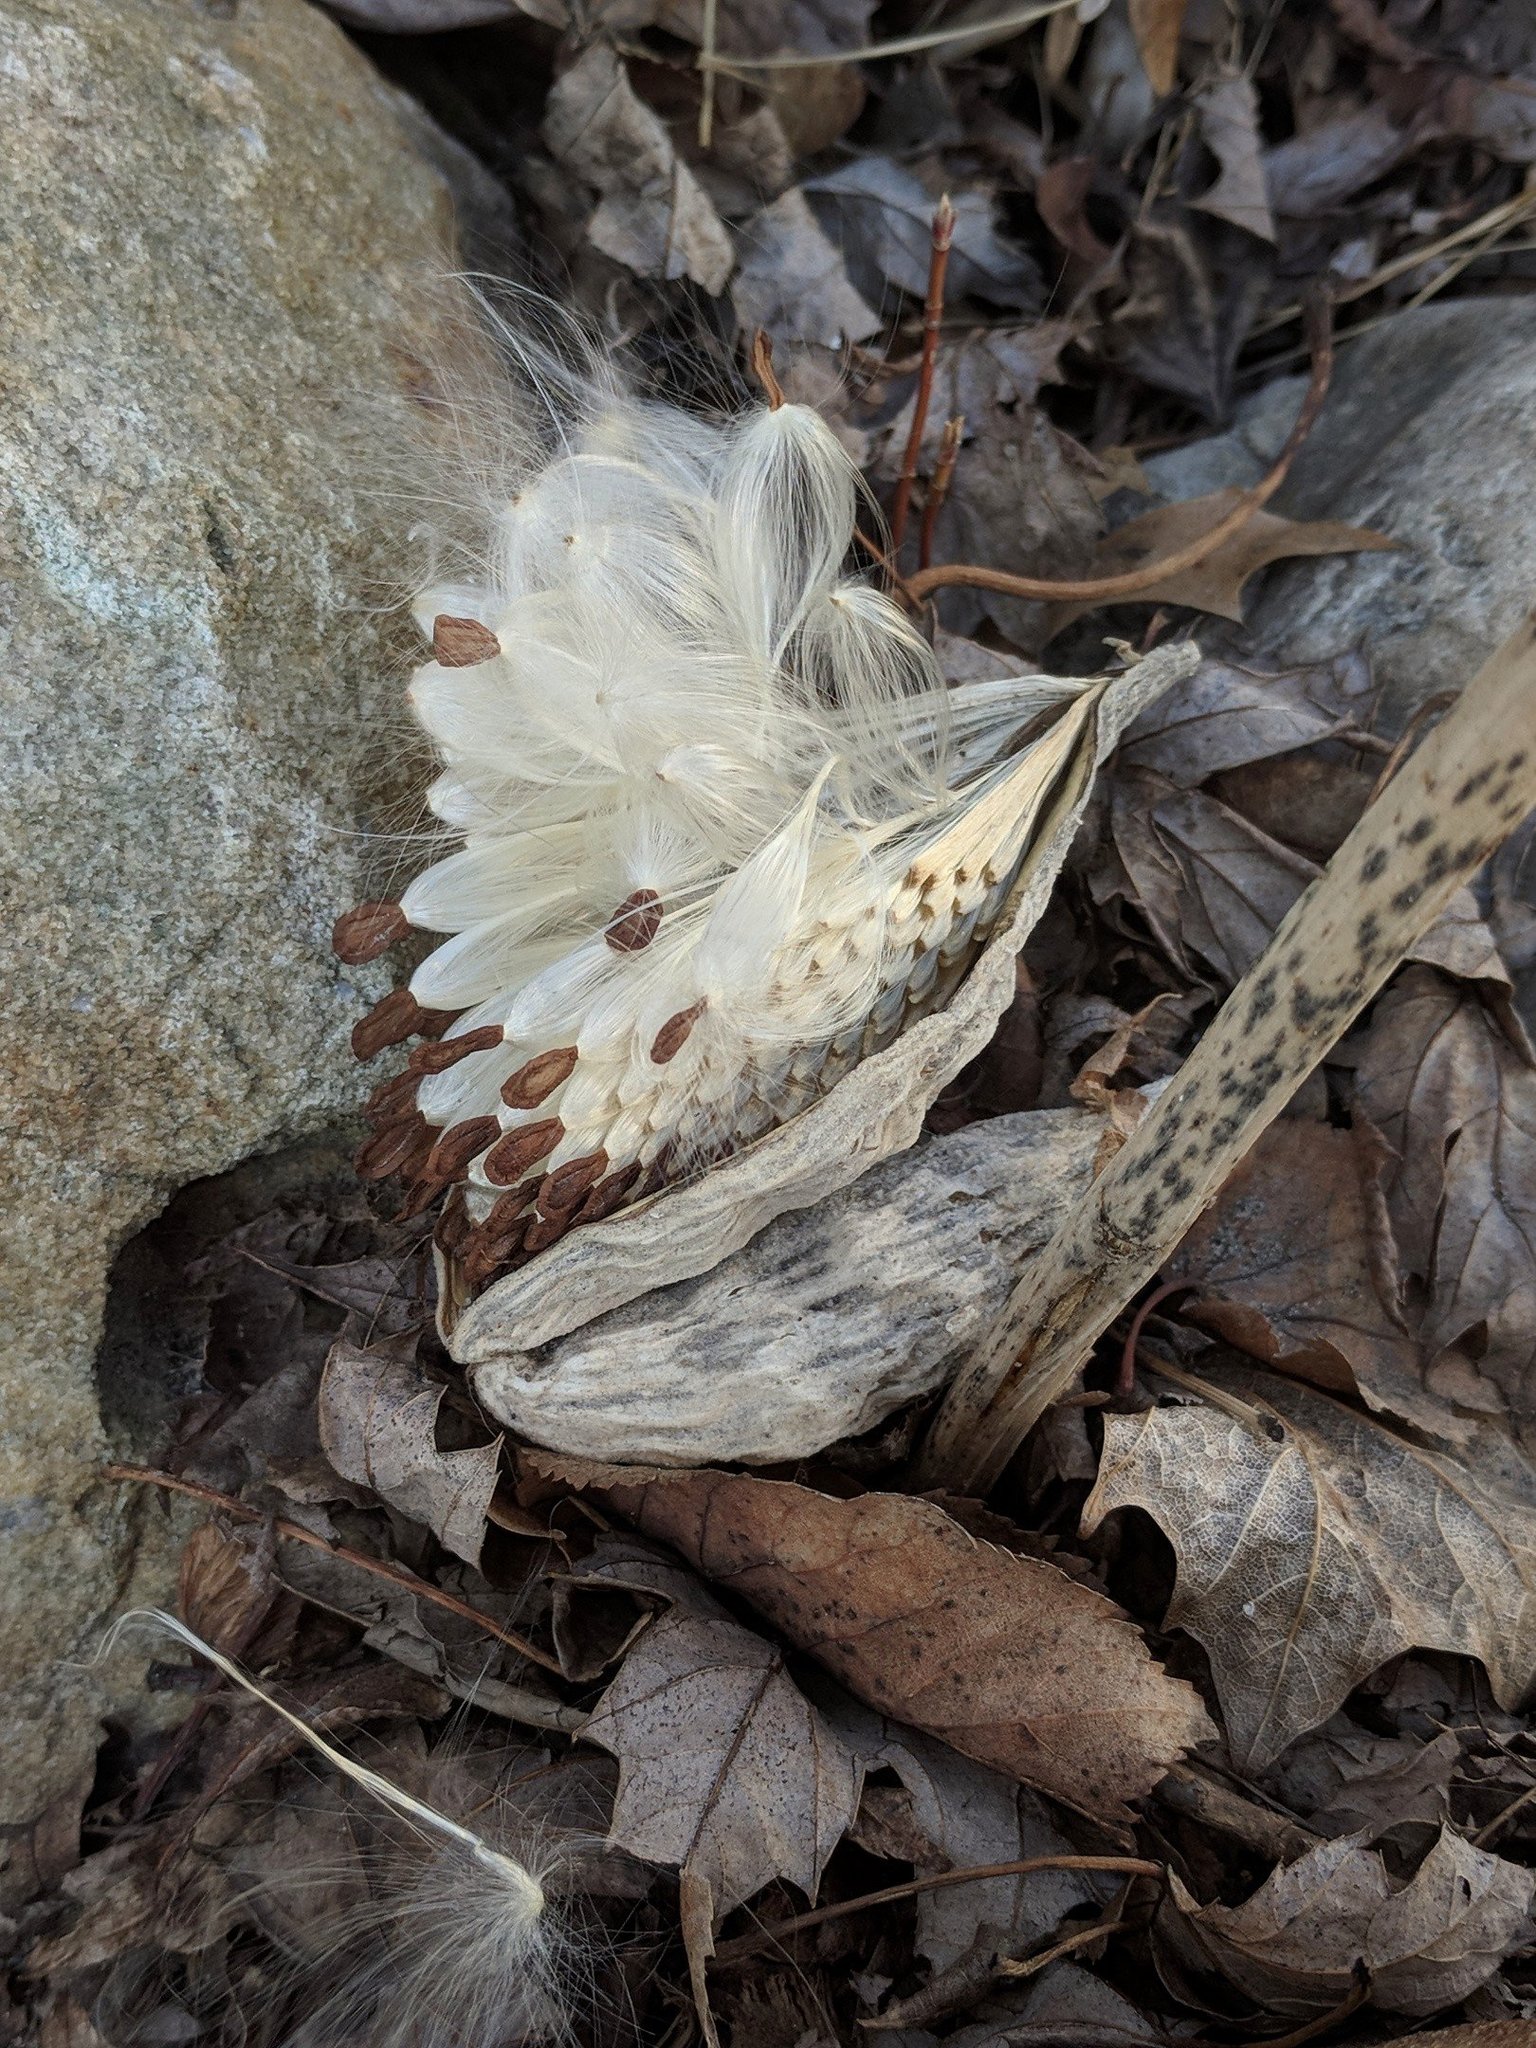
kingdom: Plantae
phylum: Tracheophyta
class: Magnoliopsida
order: Gentianales
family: Apocynaceae
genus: Asclepias
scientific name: Asclepias syriaca
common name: Common milkweed
